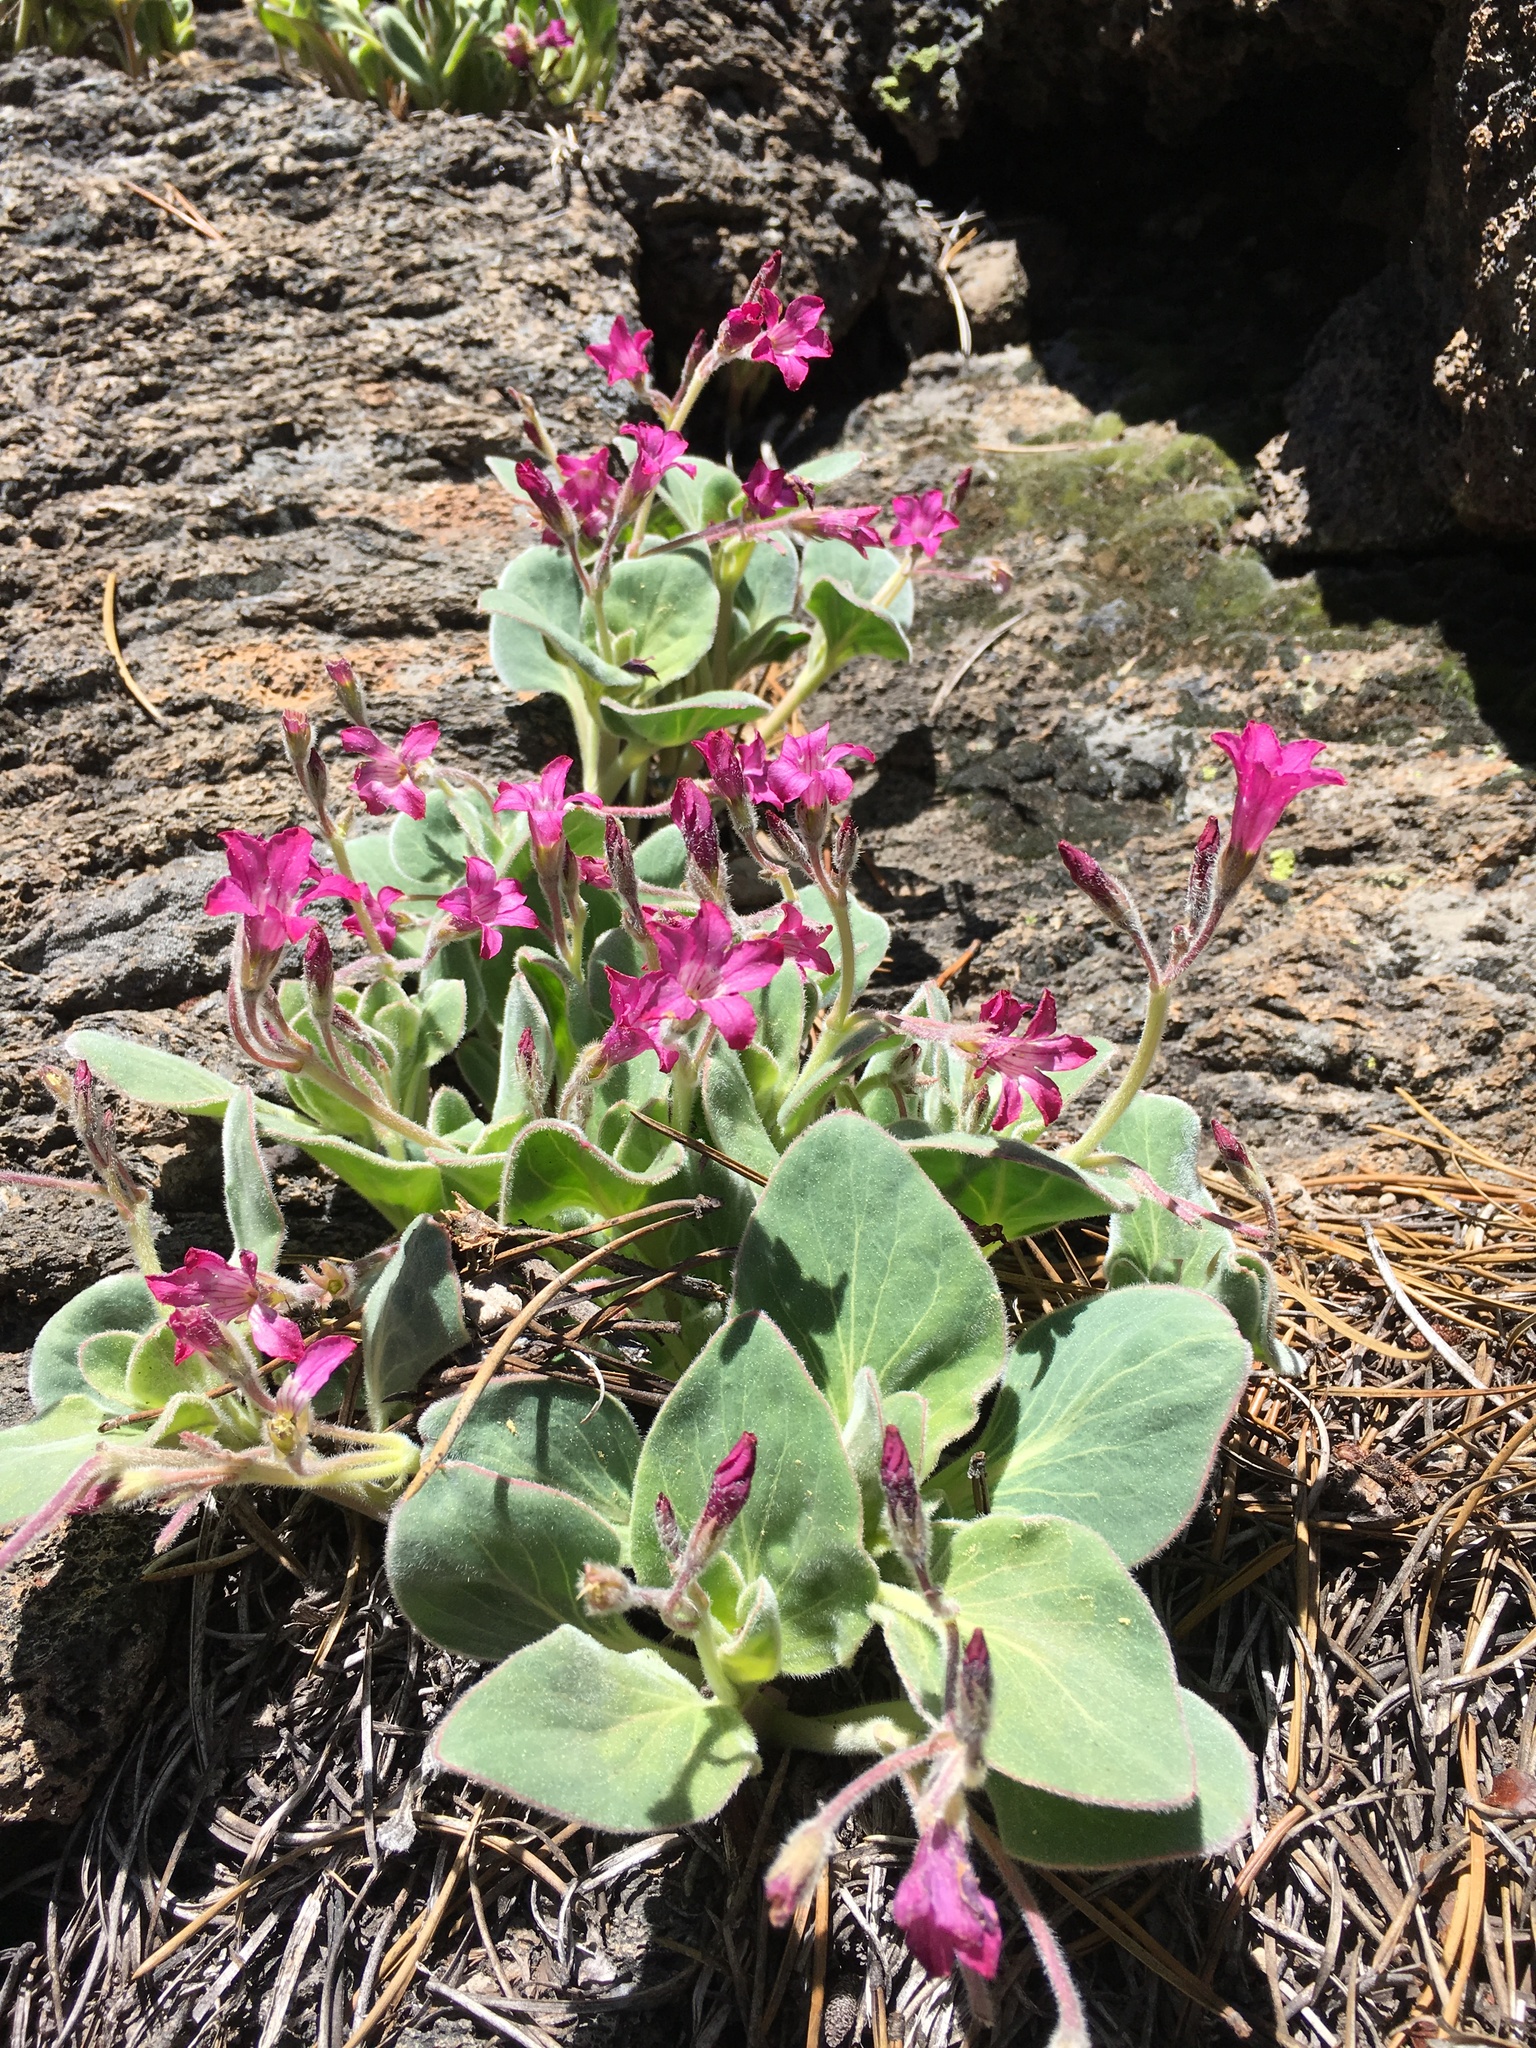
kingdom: Plantae
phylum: Tracheophyta
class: Magnoliopsida
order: Gentianales
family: Apocynaceae
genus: Cycladenia
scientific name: Cycladenia humilis
